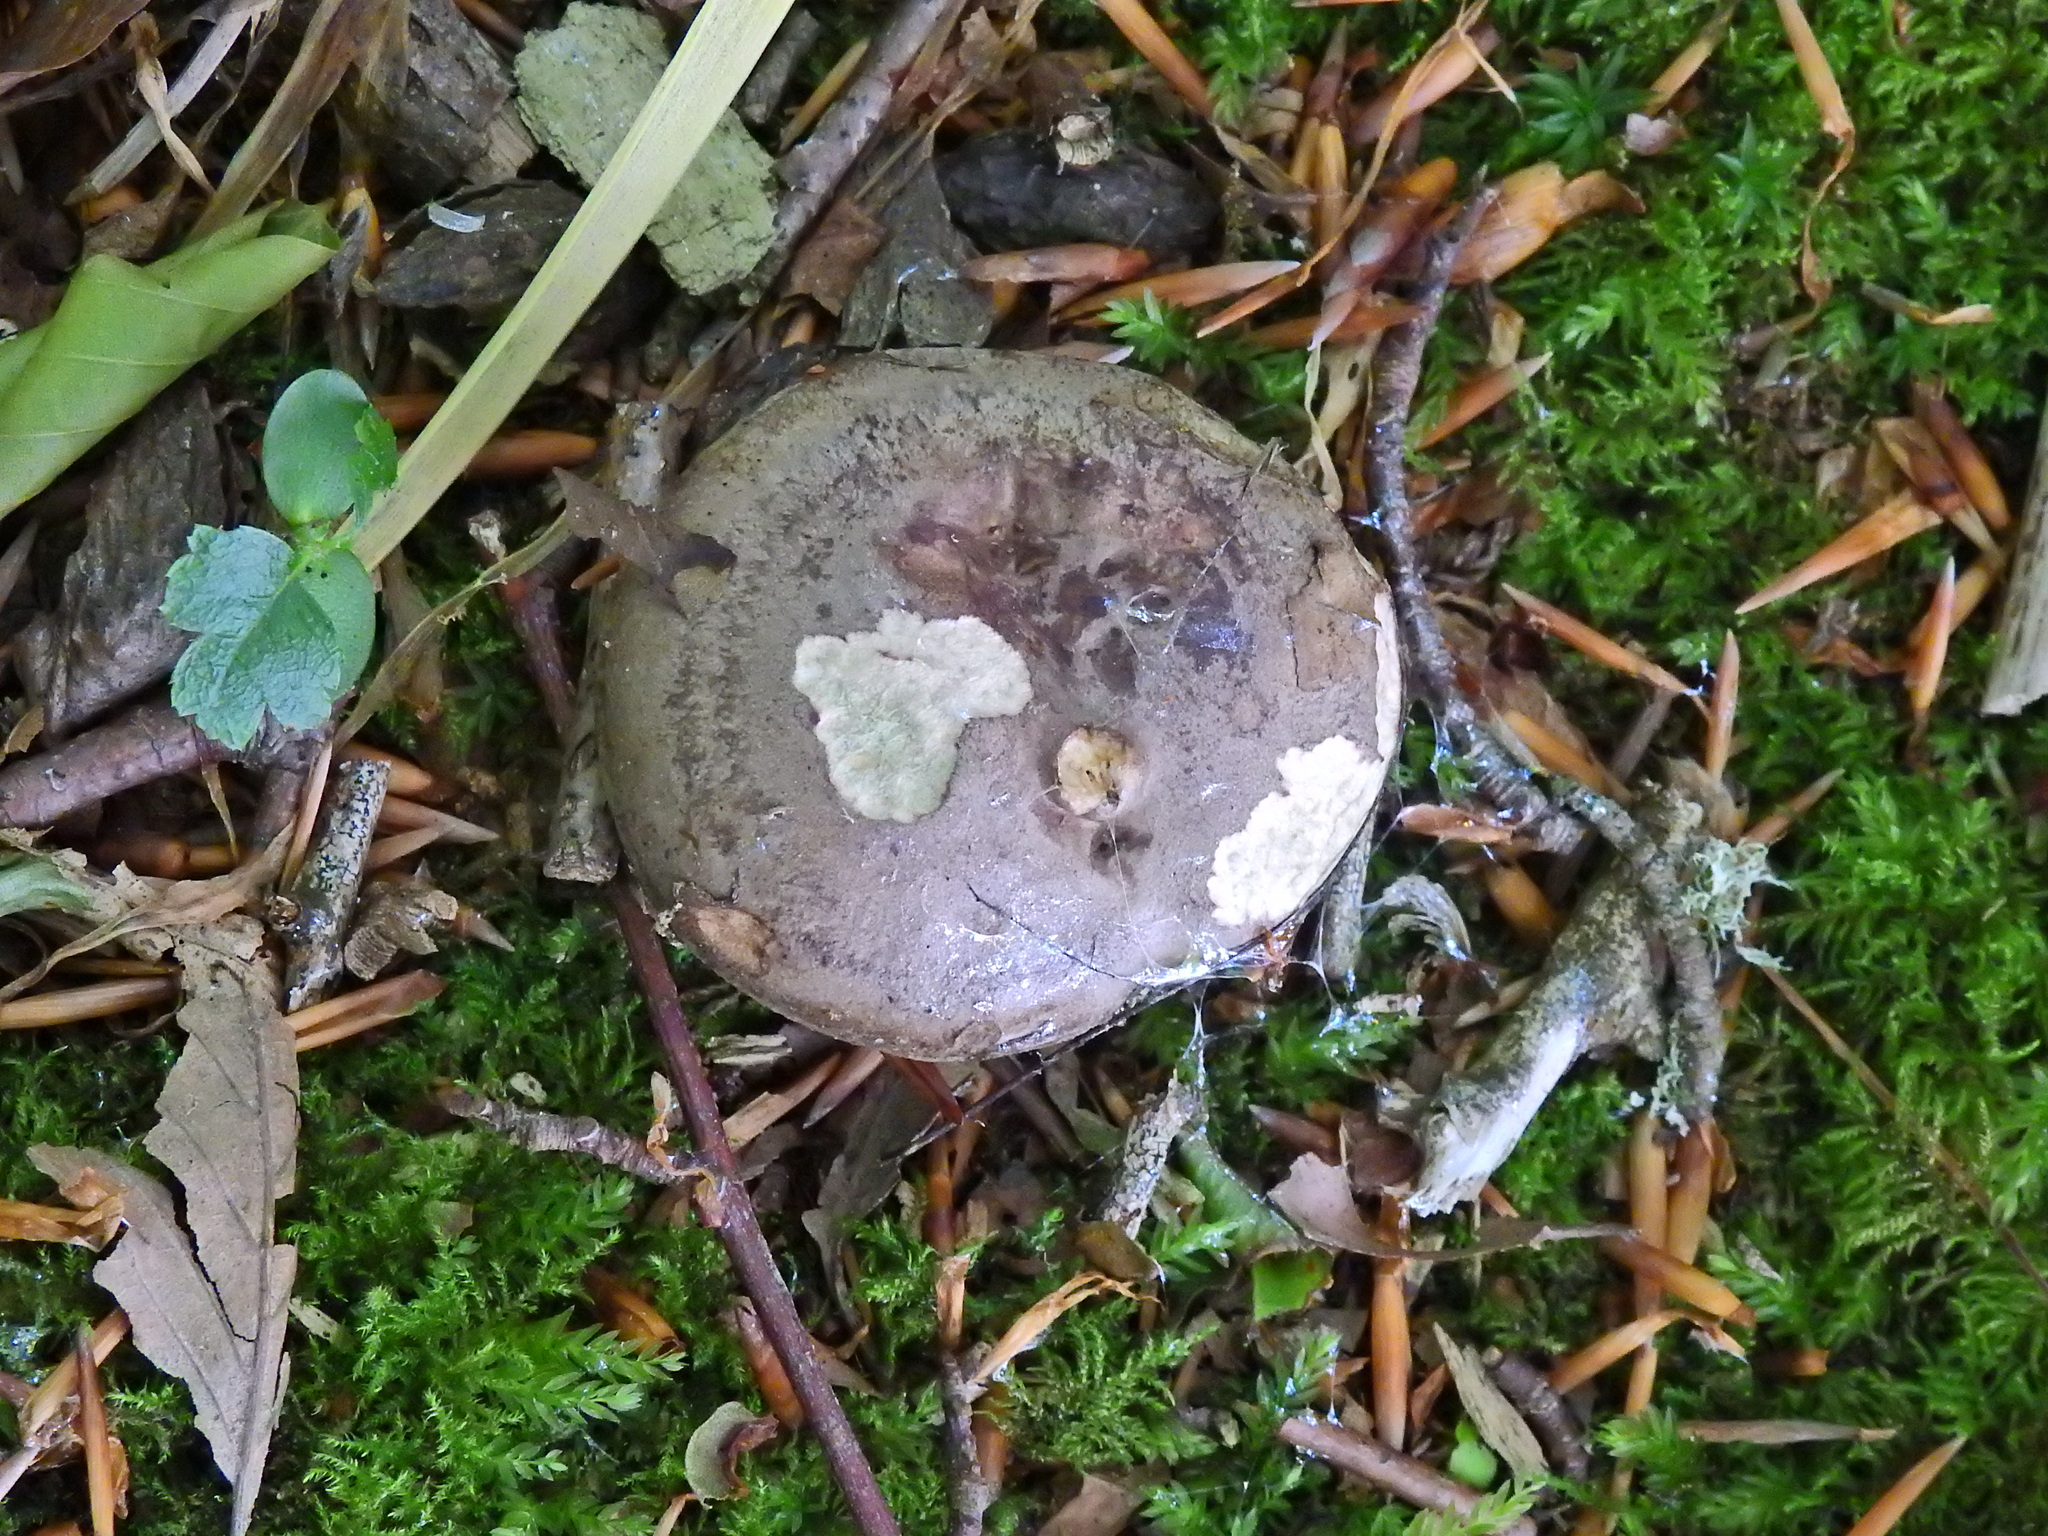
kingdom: Fungi
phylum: Basidiomycota
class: Agaricomycetes
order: Russulales
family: Russulaceae
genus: Lactarius
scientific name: Lactarius blennius
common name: Beech milkcap
